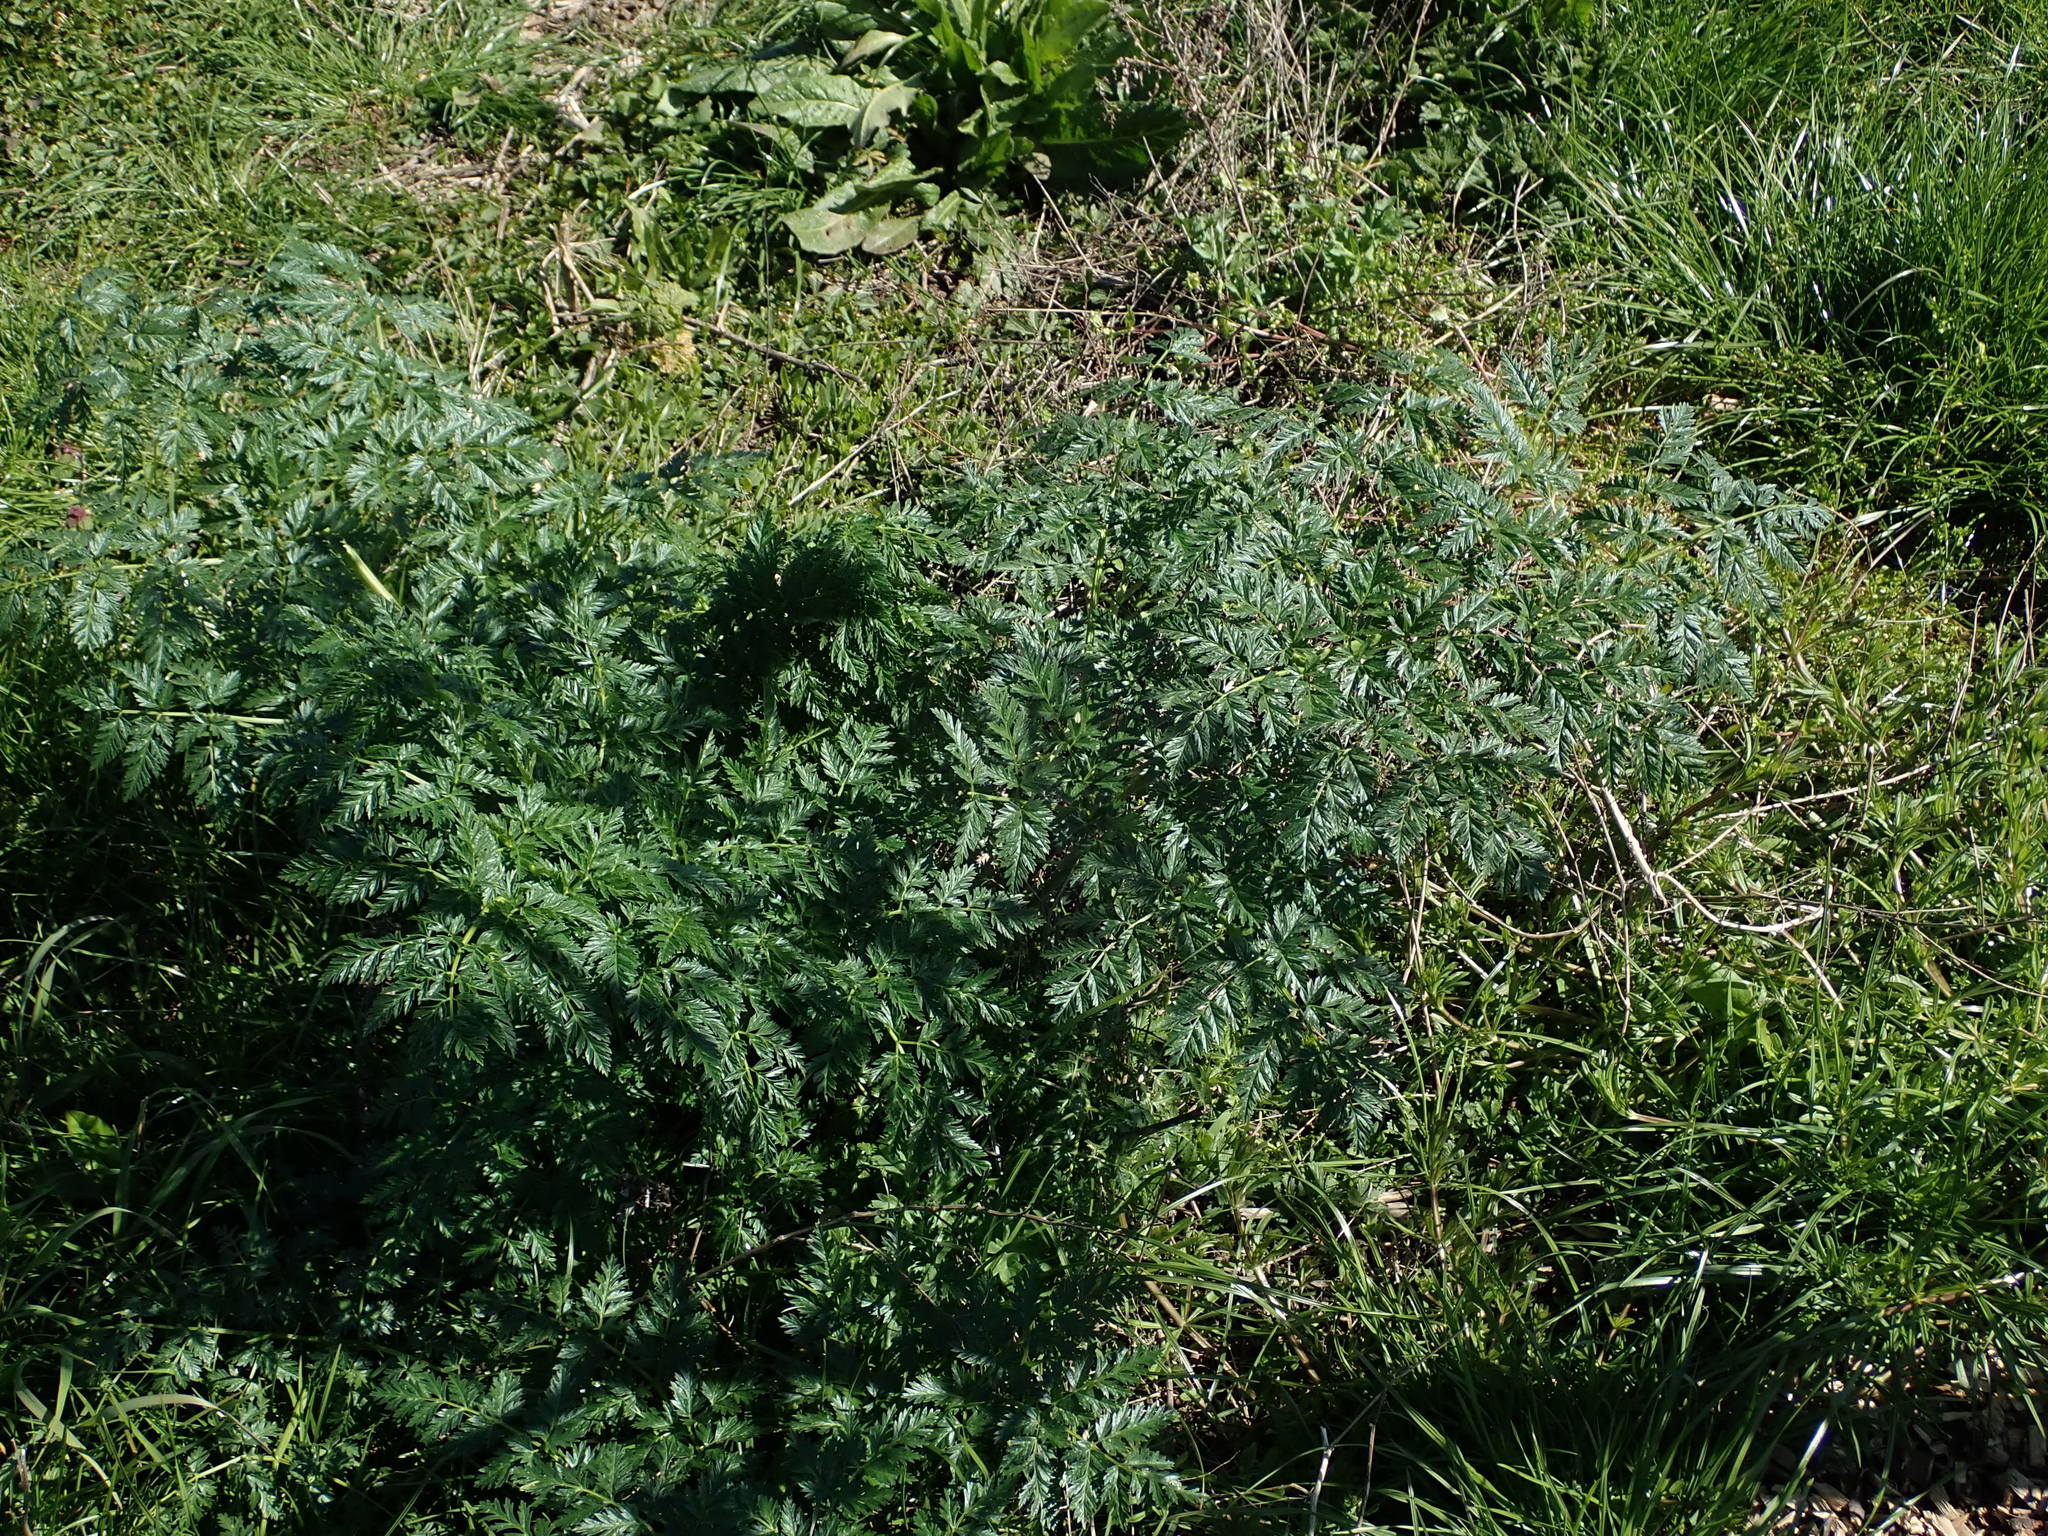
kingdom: Plantae
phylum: Tracheophyta
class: Magnoliopsida
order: Apiales
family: Apiaceae
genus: Conium
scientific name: Conium maculatum
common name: Hemlock
